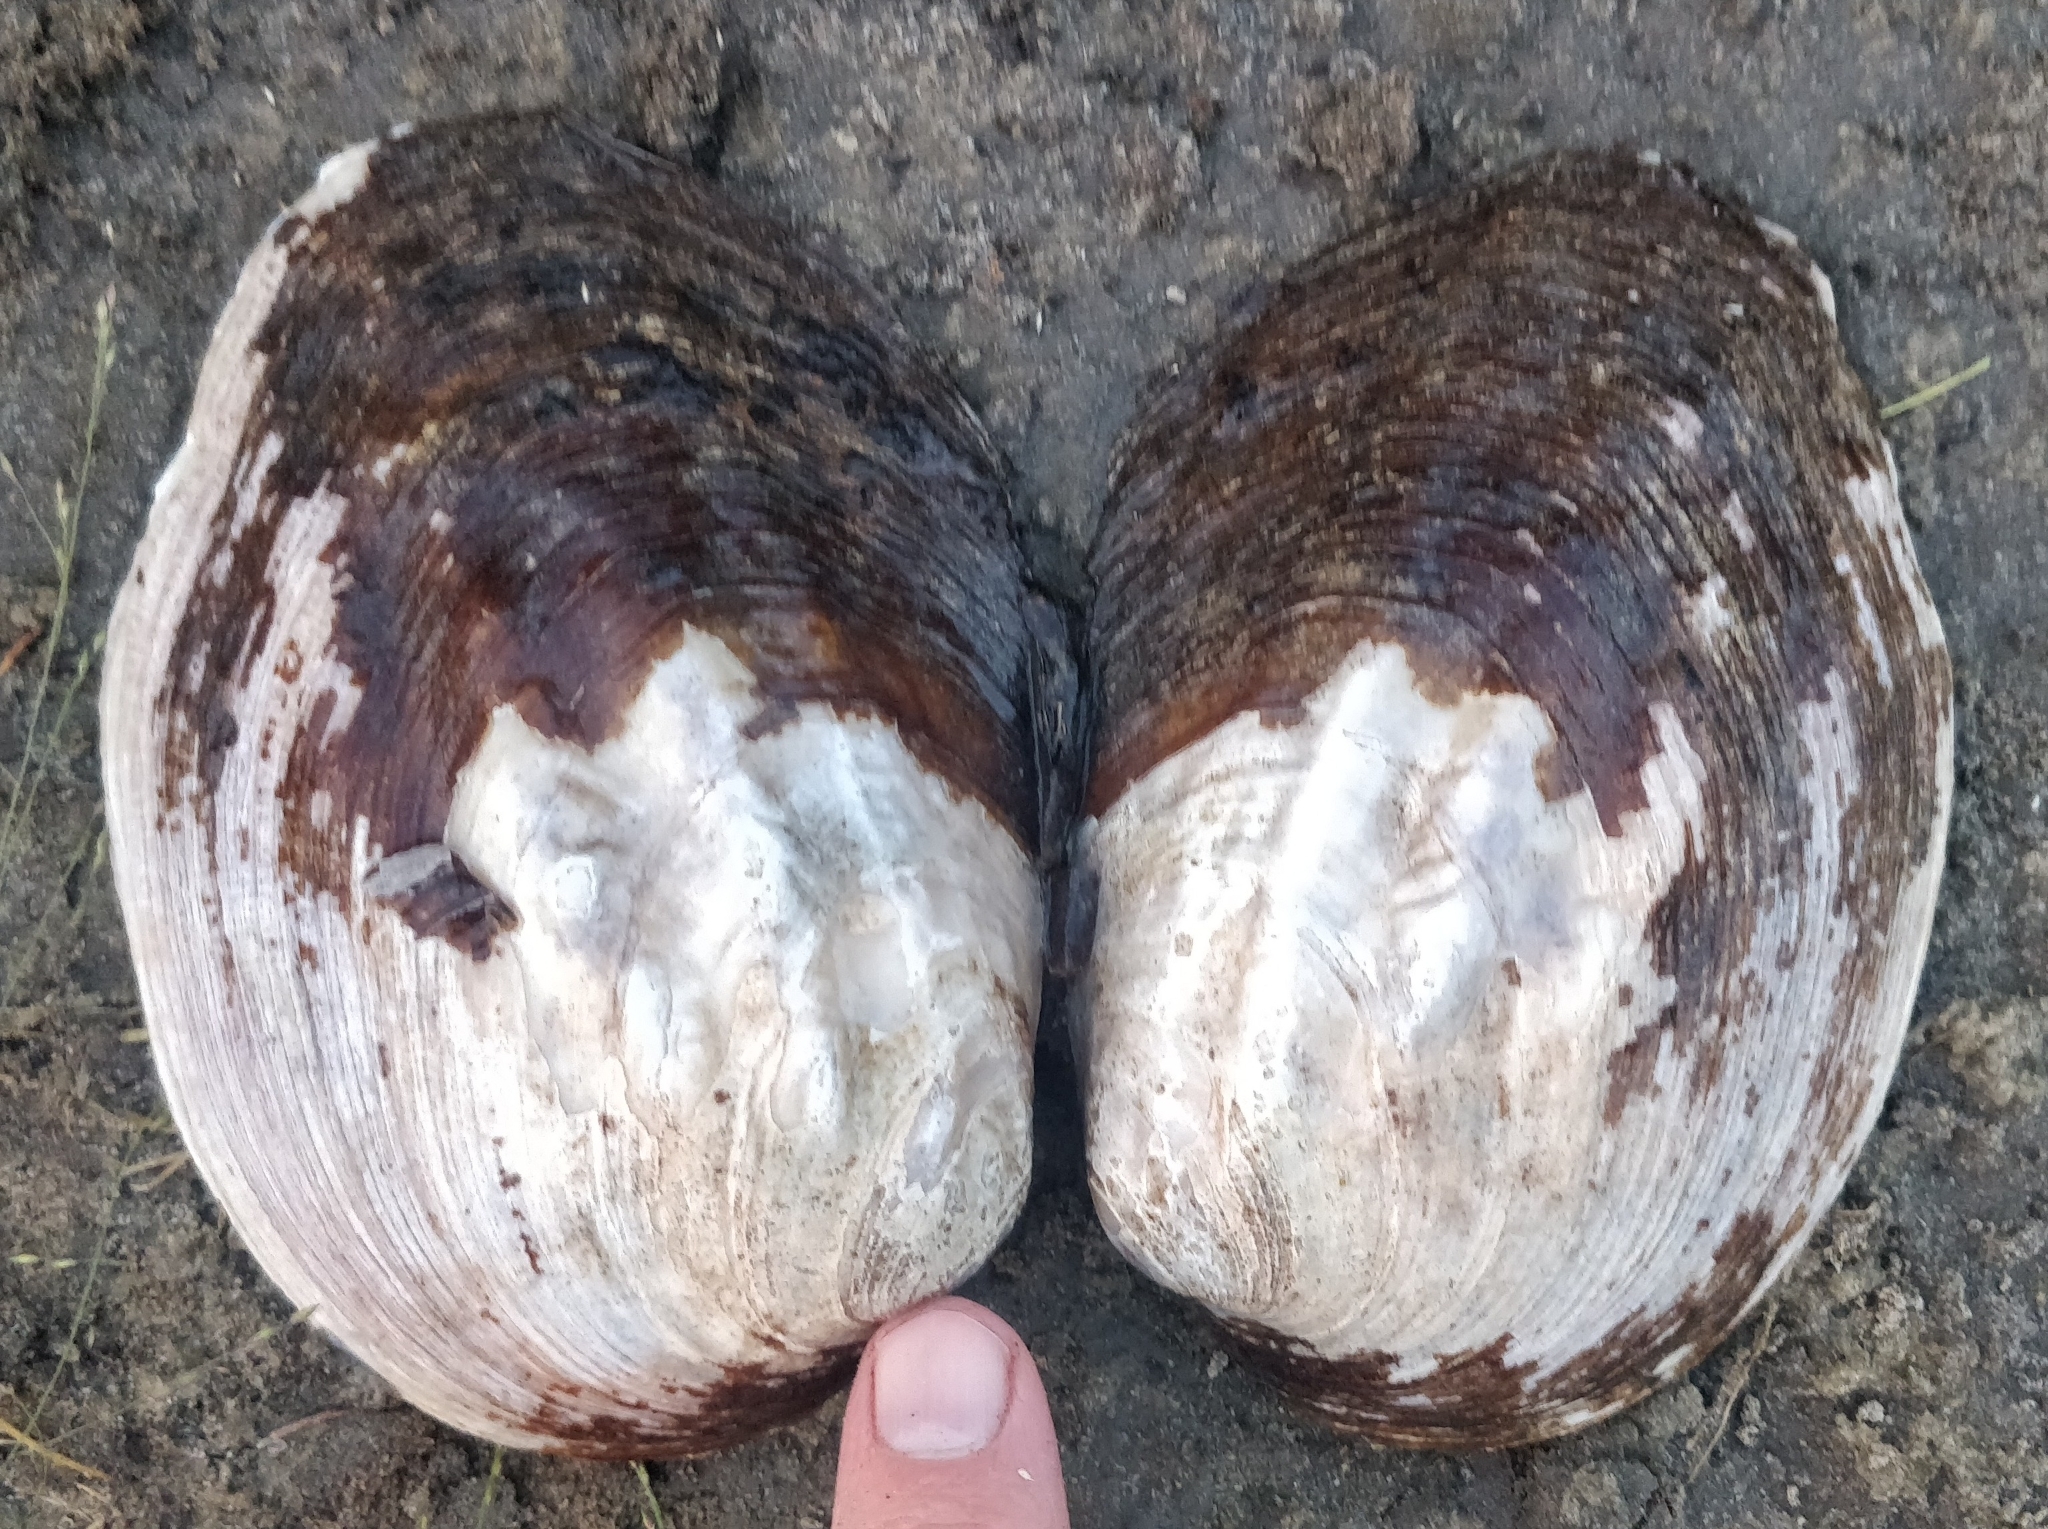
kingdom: Animalia
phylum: Mollusca
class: Bivalvia
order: Unionida
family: Unionidae
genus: Amblema
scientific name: Amblema plicata
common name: Threeridge
